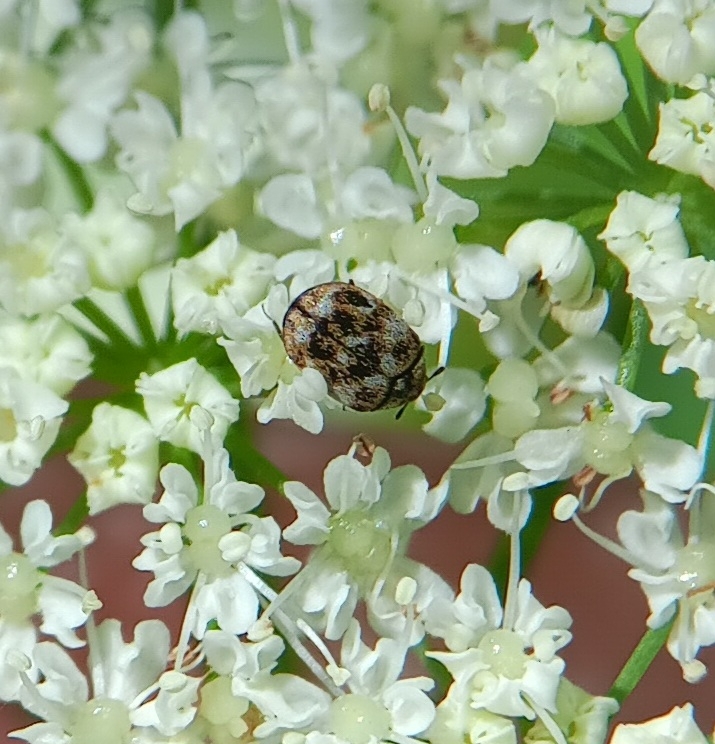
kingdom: Animalia
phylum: Arthropoda
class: Insecta
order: Coleoptera
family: Dermestidae
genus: Anthrenus
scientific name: Anthrenus verbasci
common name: Varied carpet beetle
